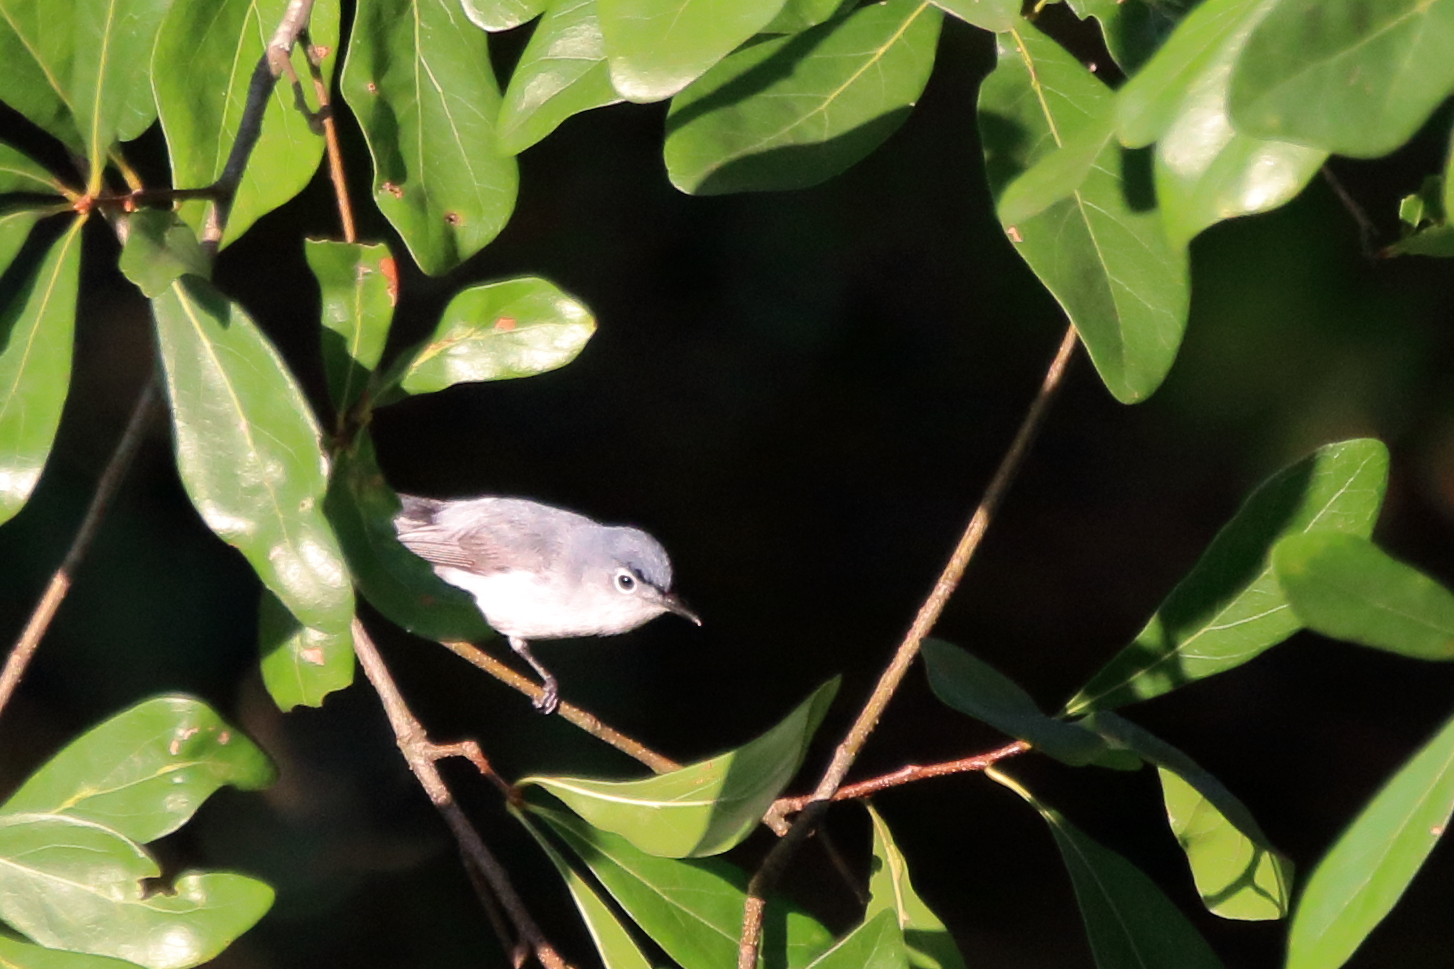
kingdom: Animalia
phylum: Chordata
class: Aves
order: Passeriformes
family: Polioptilidae
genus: Polioptila
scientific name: Polioptila caerulea
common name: Blue-gray gnatcatcher
